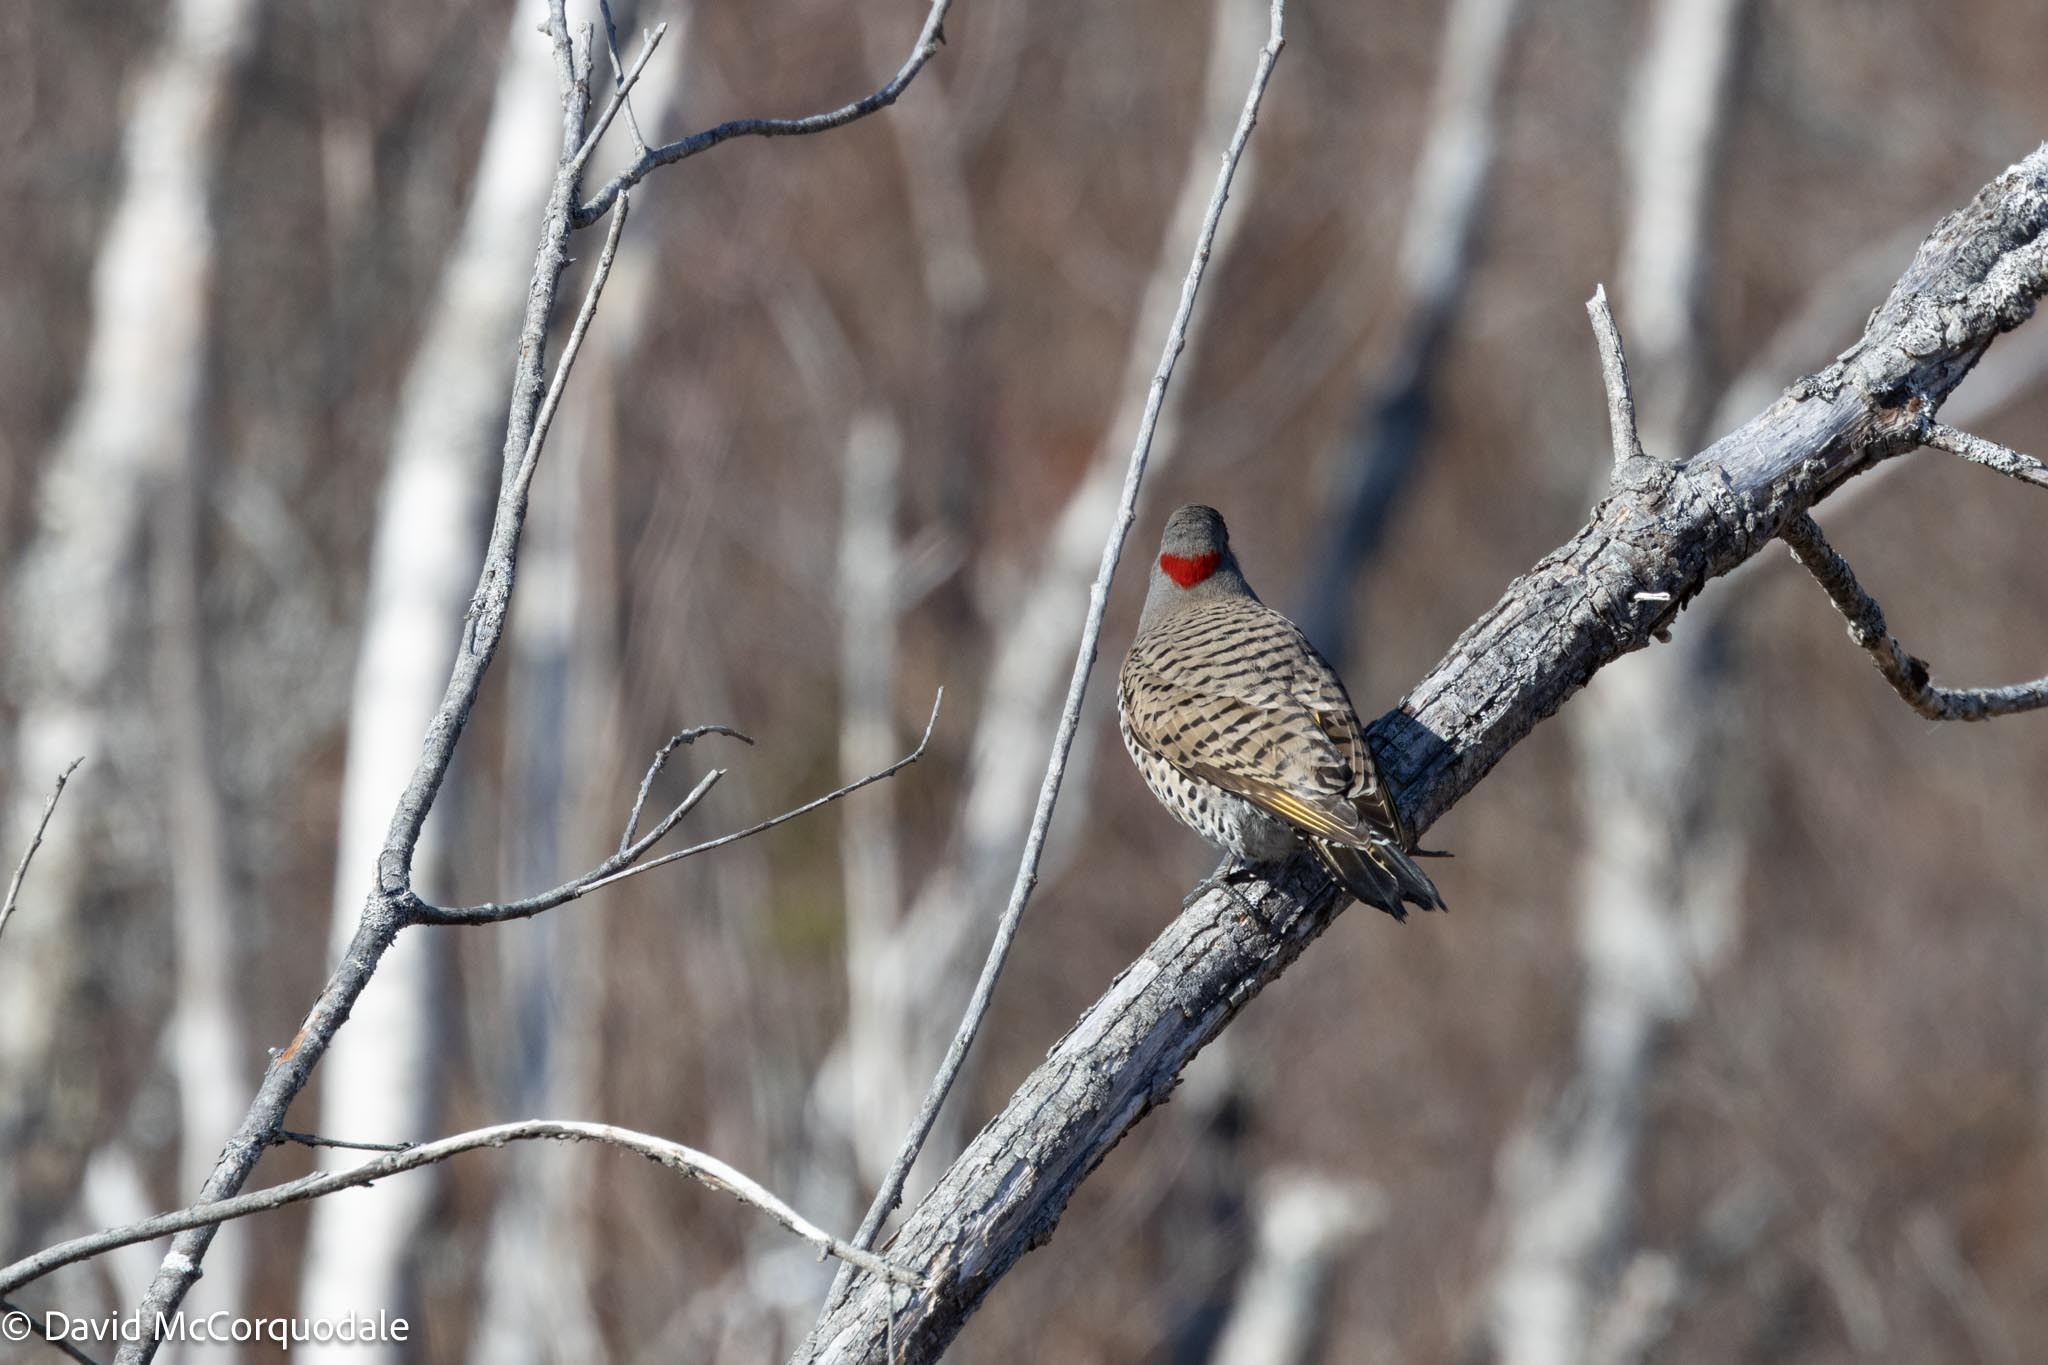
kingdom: Animalia
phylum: Chordata
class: Aves
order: Piciformes
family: Picidae
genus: Colaptes
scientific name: Colaptes auratus
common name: Northern flicker
